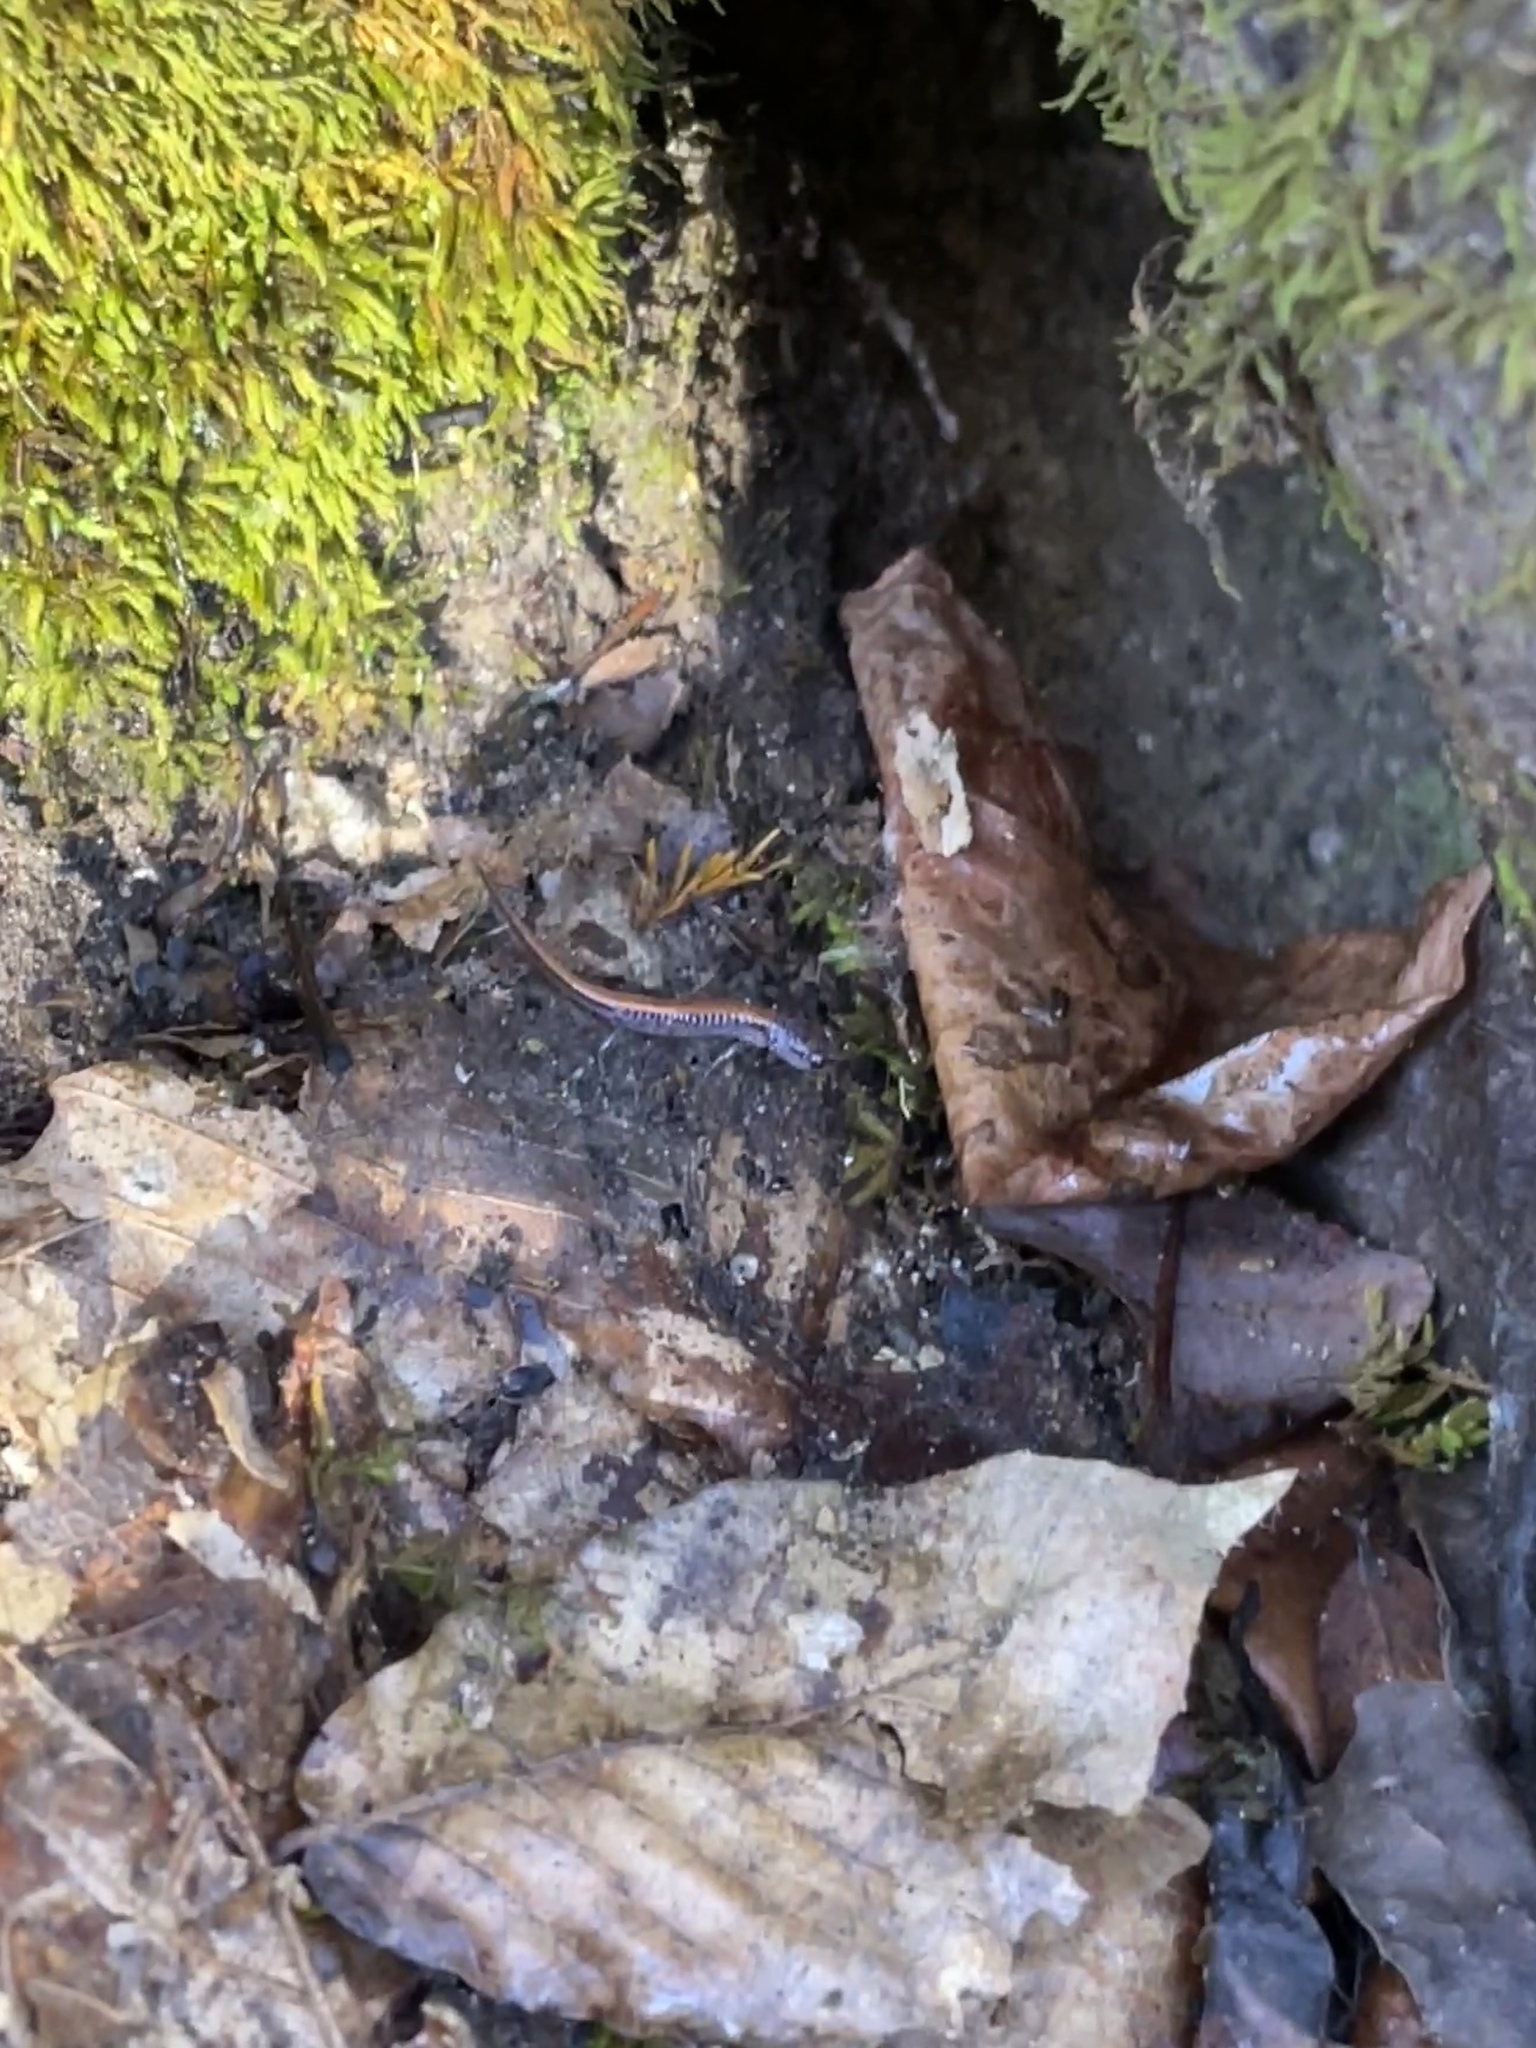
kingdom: Animalia
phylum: Chordata
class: Amphibia
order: Caudata
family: Plethodontidae
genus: Plethodon
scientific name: Plethodon websteri
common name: Webster's salamander
